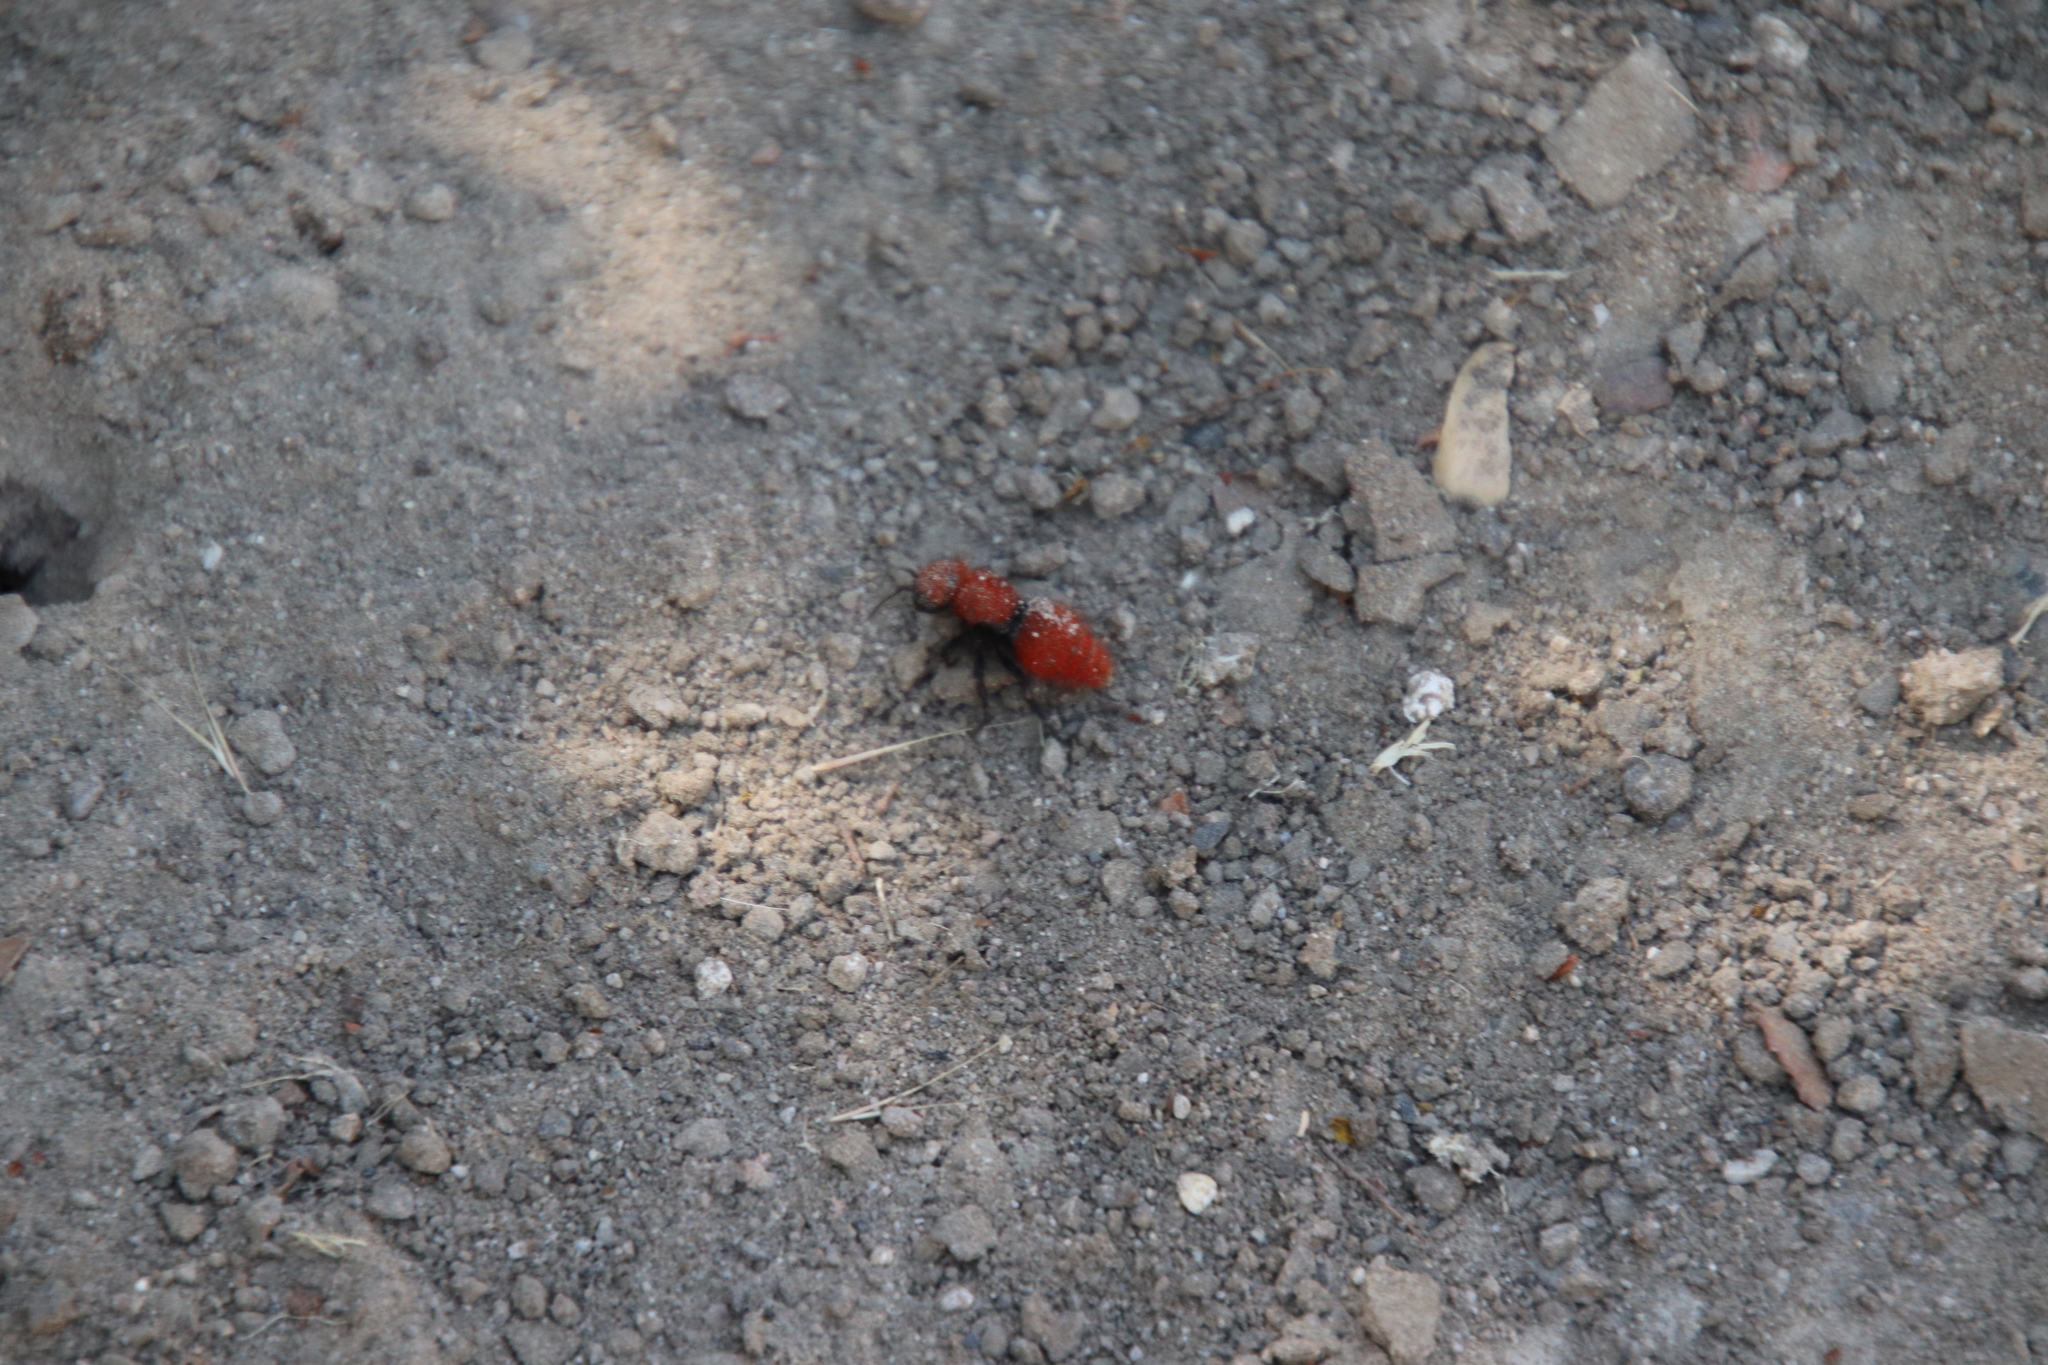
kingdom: Animalia
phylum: Arthropoda
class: Insecta
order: Hymenoptera
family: Mutillidae
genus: Dasymutilla
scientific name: Dasymutilla
